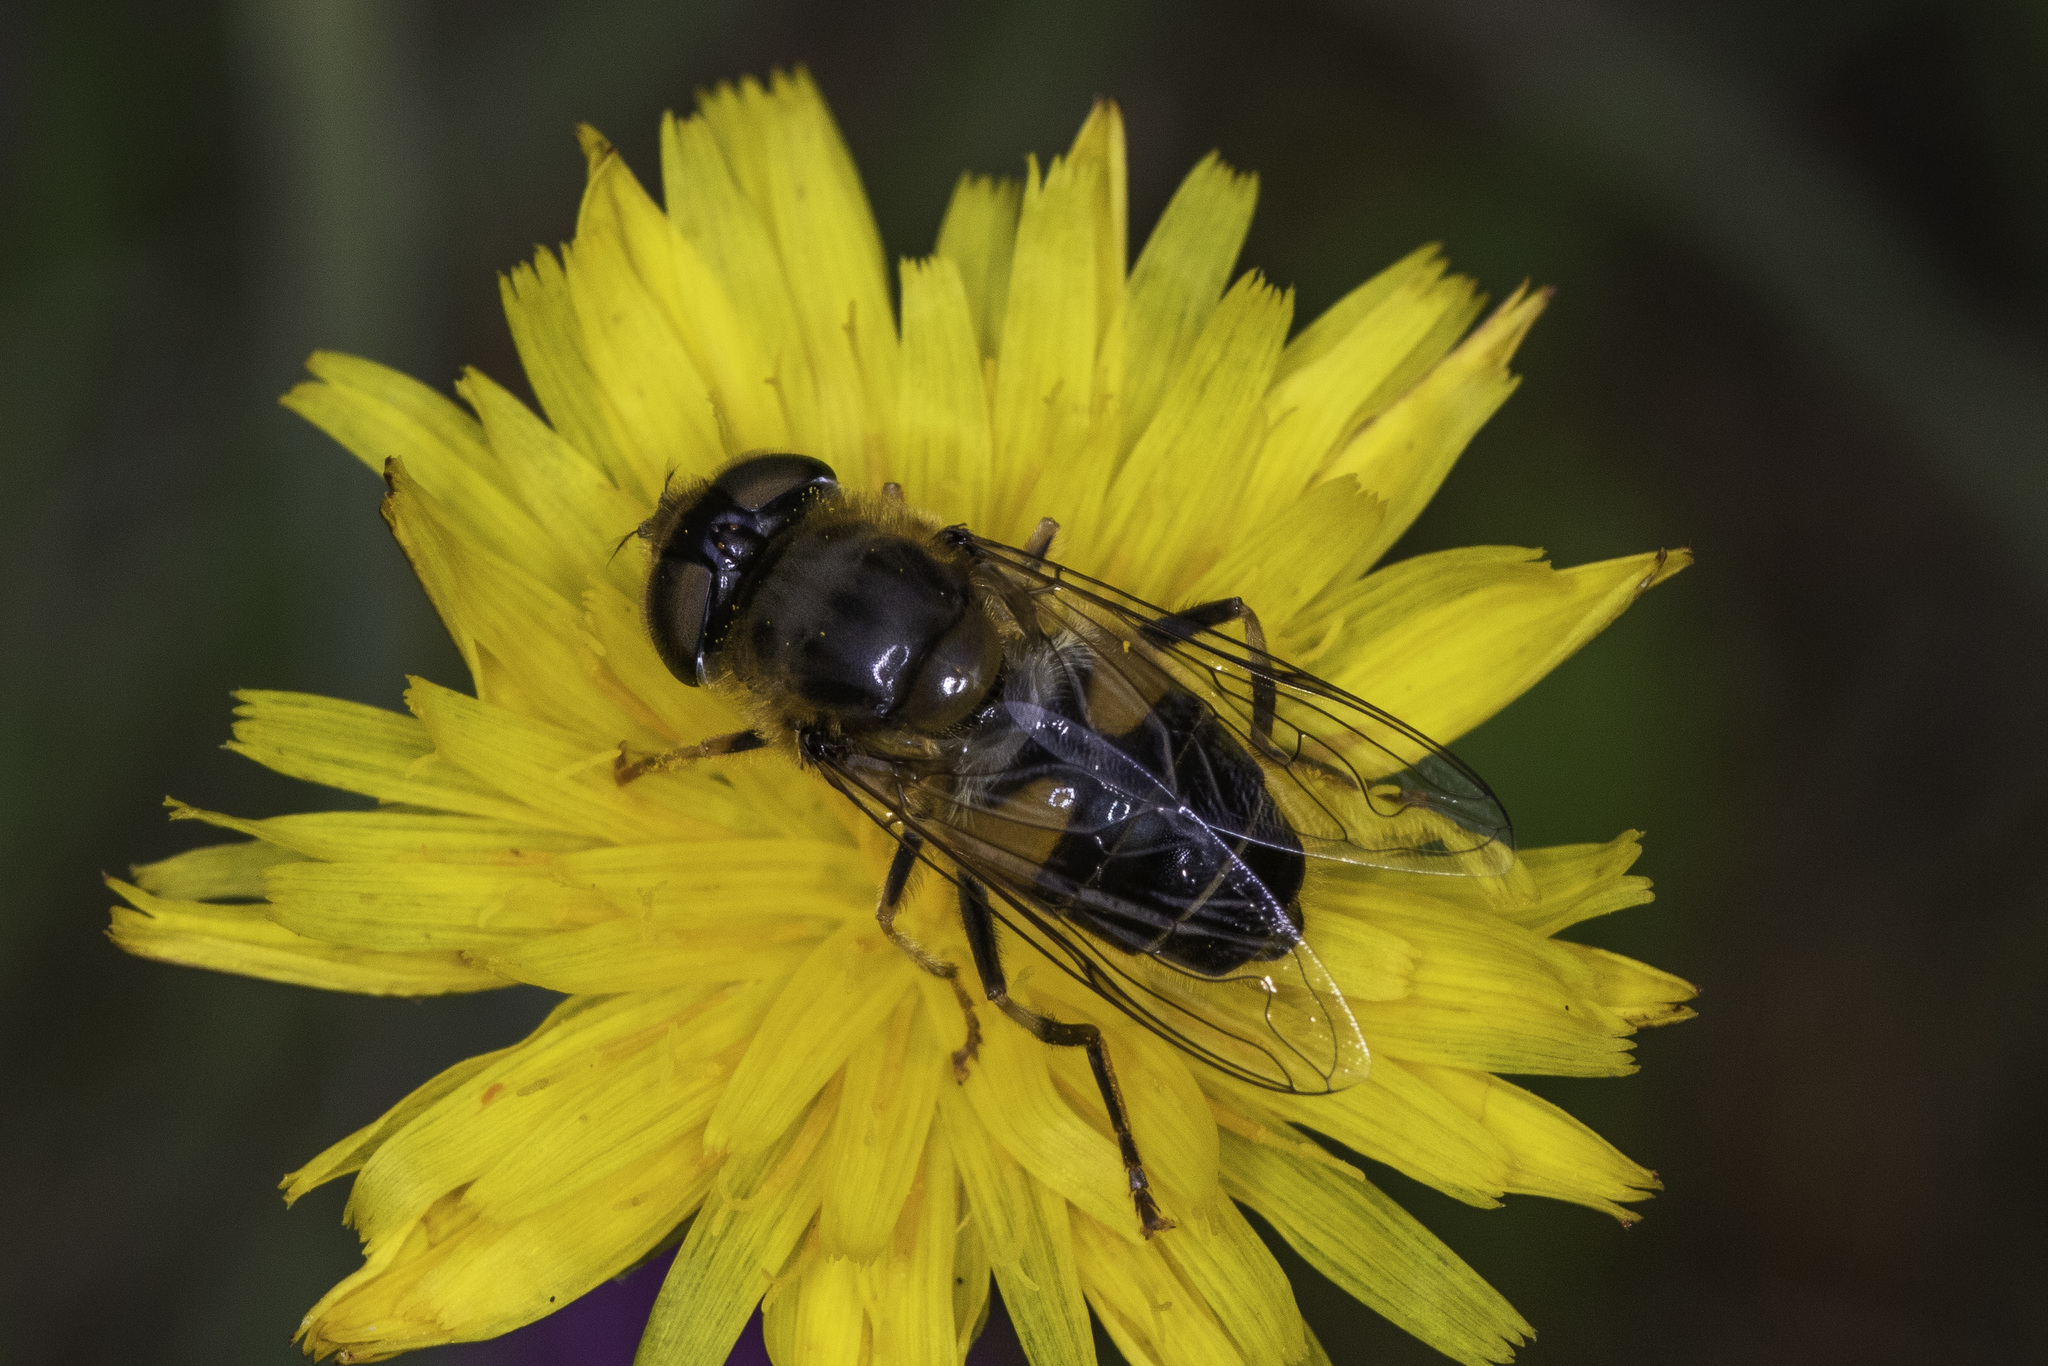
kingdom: Animalia
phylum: Arthropoda
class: Insecta
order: Diptera
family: Syrphidae
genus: Eristalis
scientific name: Eristalis pertinax
